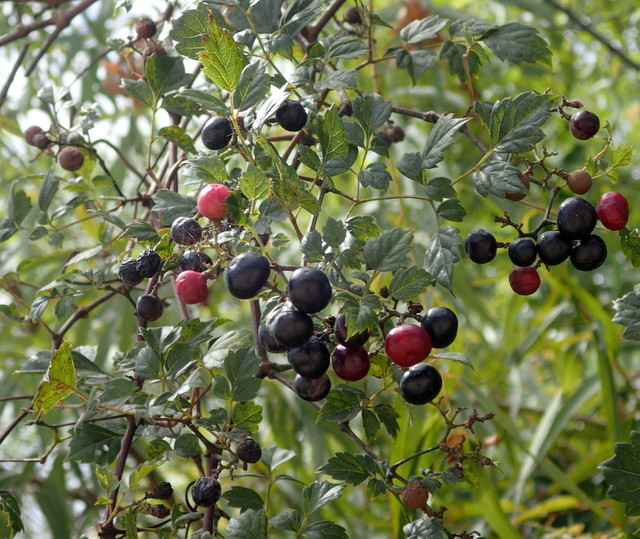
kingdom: Plantae
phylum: Tracheophyta
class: Magnoliopsida
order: Vitales
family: Vitaceae
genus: Nekemias
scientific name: Nekemias arborea
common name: Peppervine
